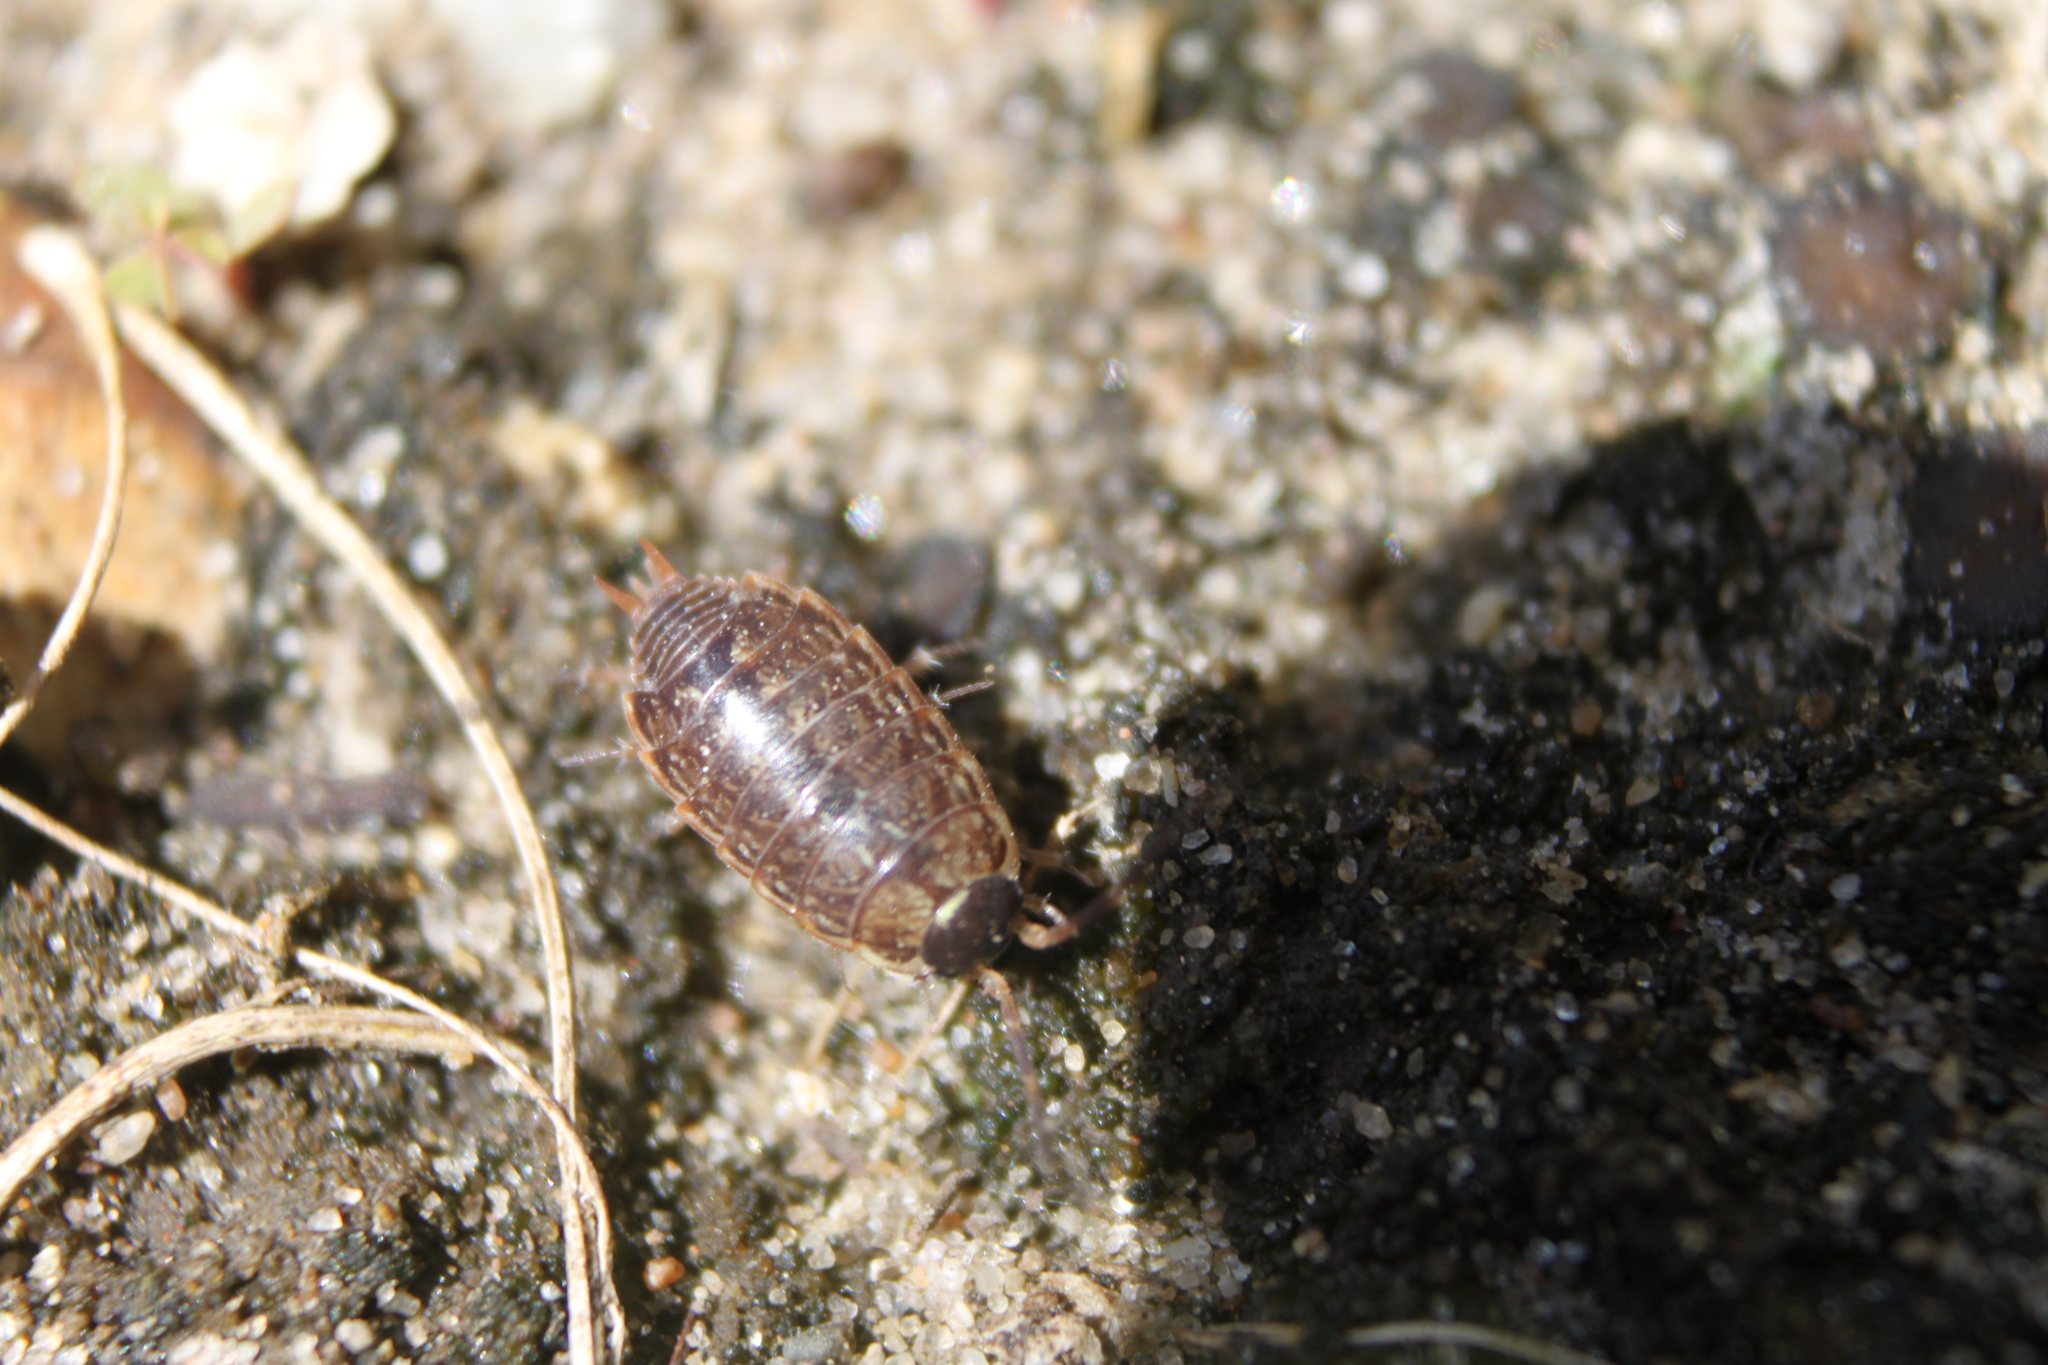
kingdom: Animalia
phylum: Arthropoda
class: Malacostraca
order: Isopoda
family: Philosciidae
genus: Philoscia
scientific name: Philoscia muscorum
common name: Common striped woodlouse
